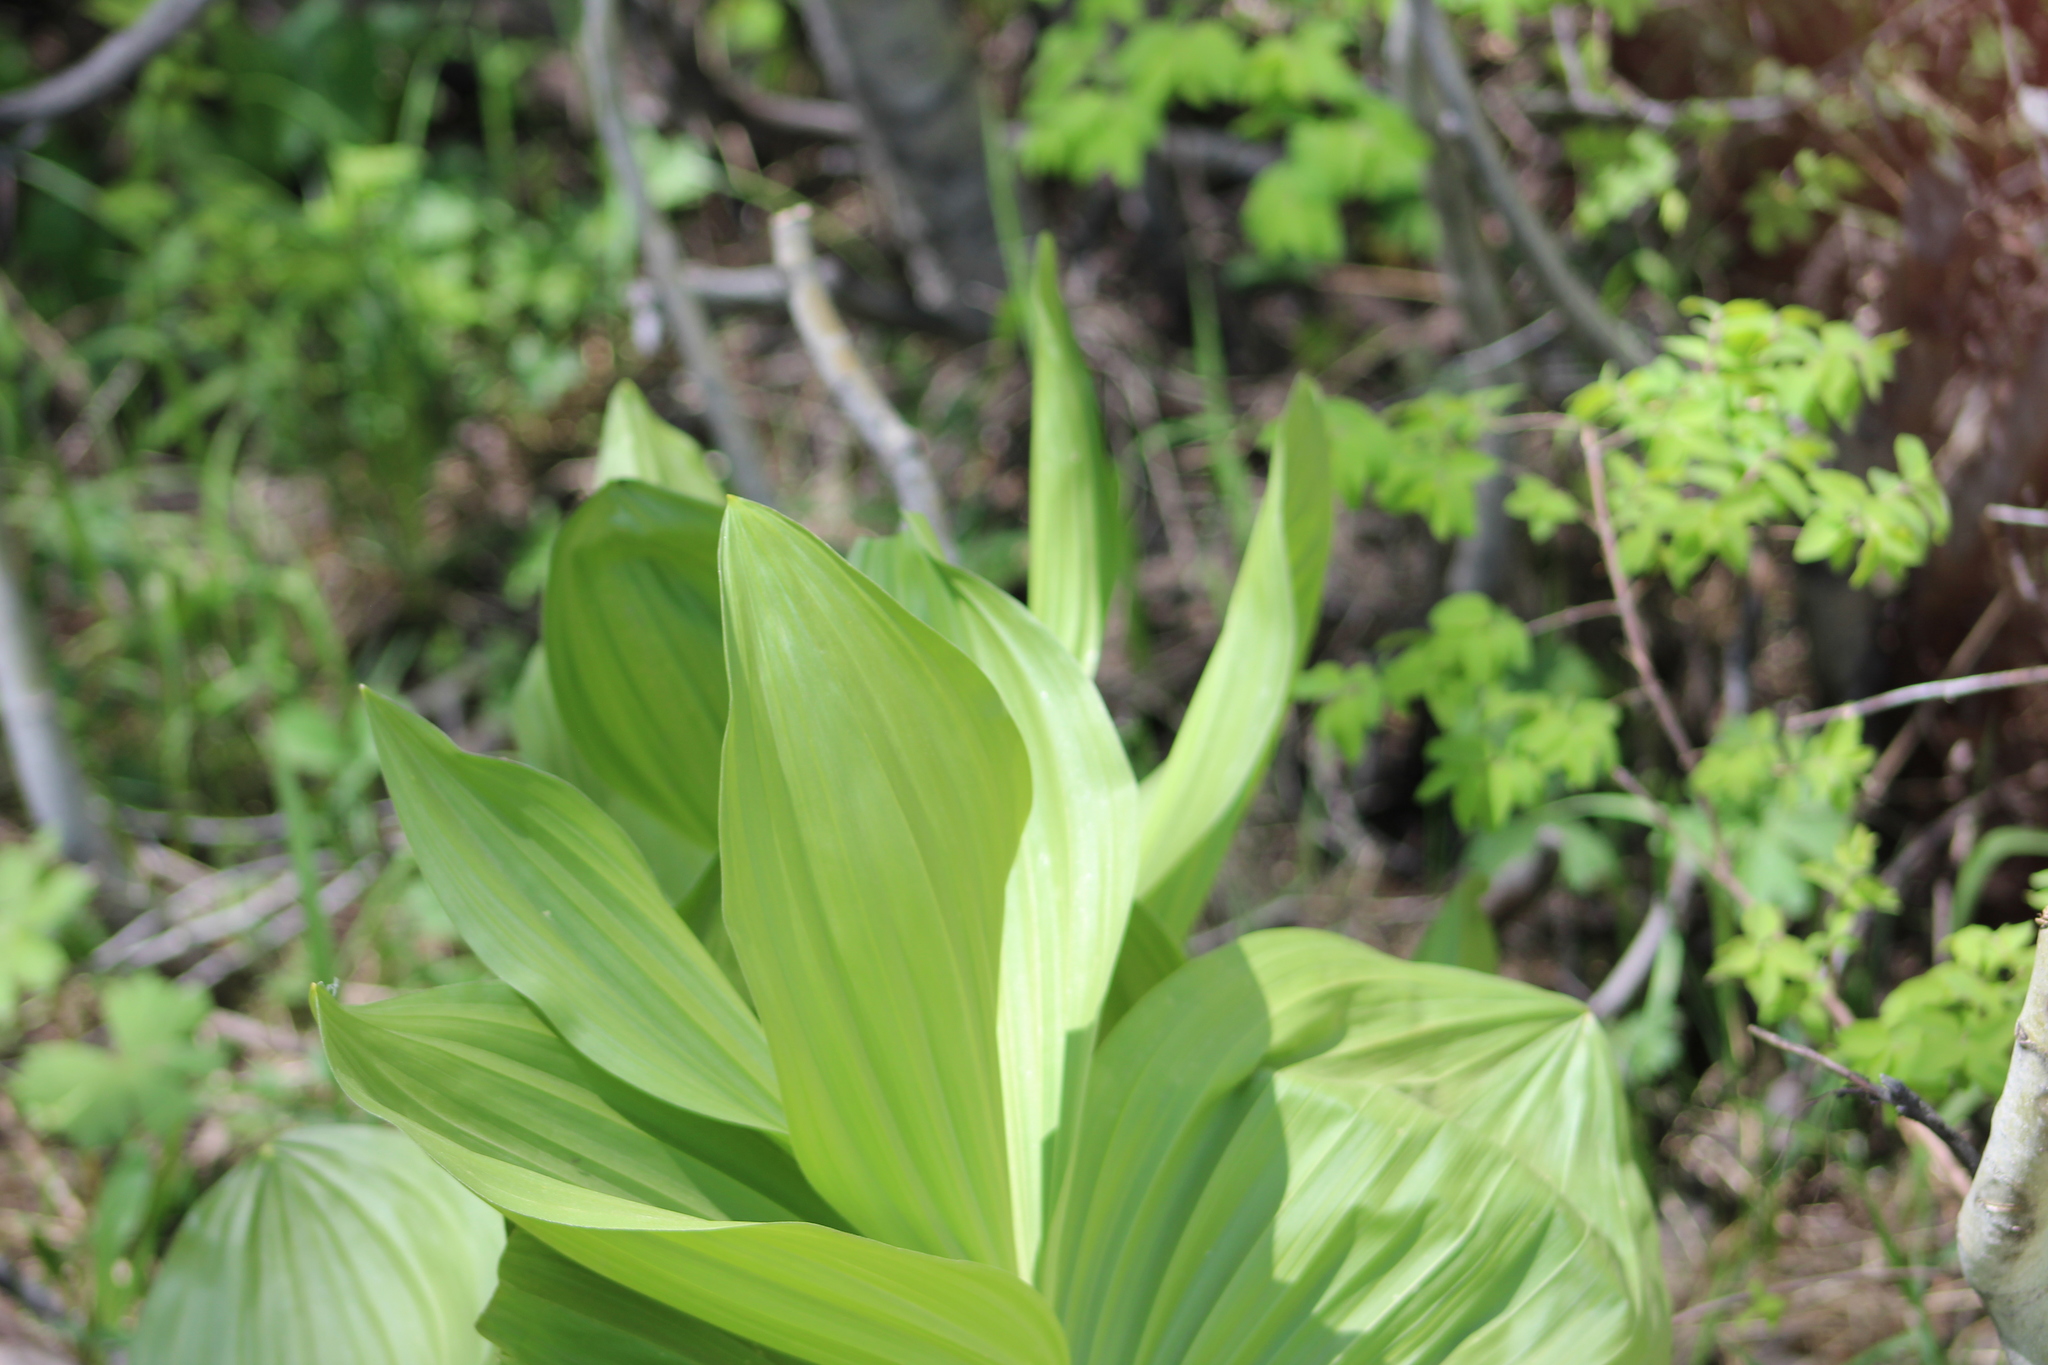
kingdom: Plantae
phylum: Tracheophyta
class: Liliopsida
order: Liliales
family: Melanthiaceae
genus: Veratrum
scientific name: Veratrum californicum
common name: California veratrum
